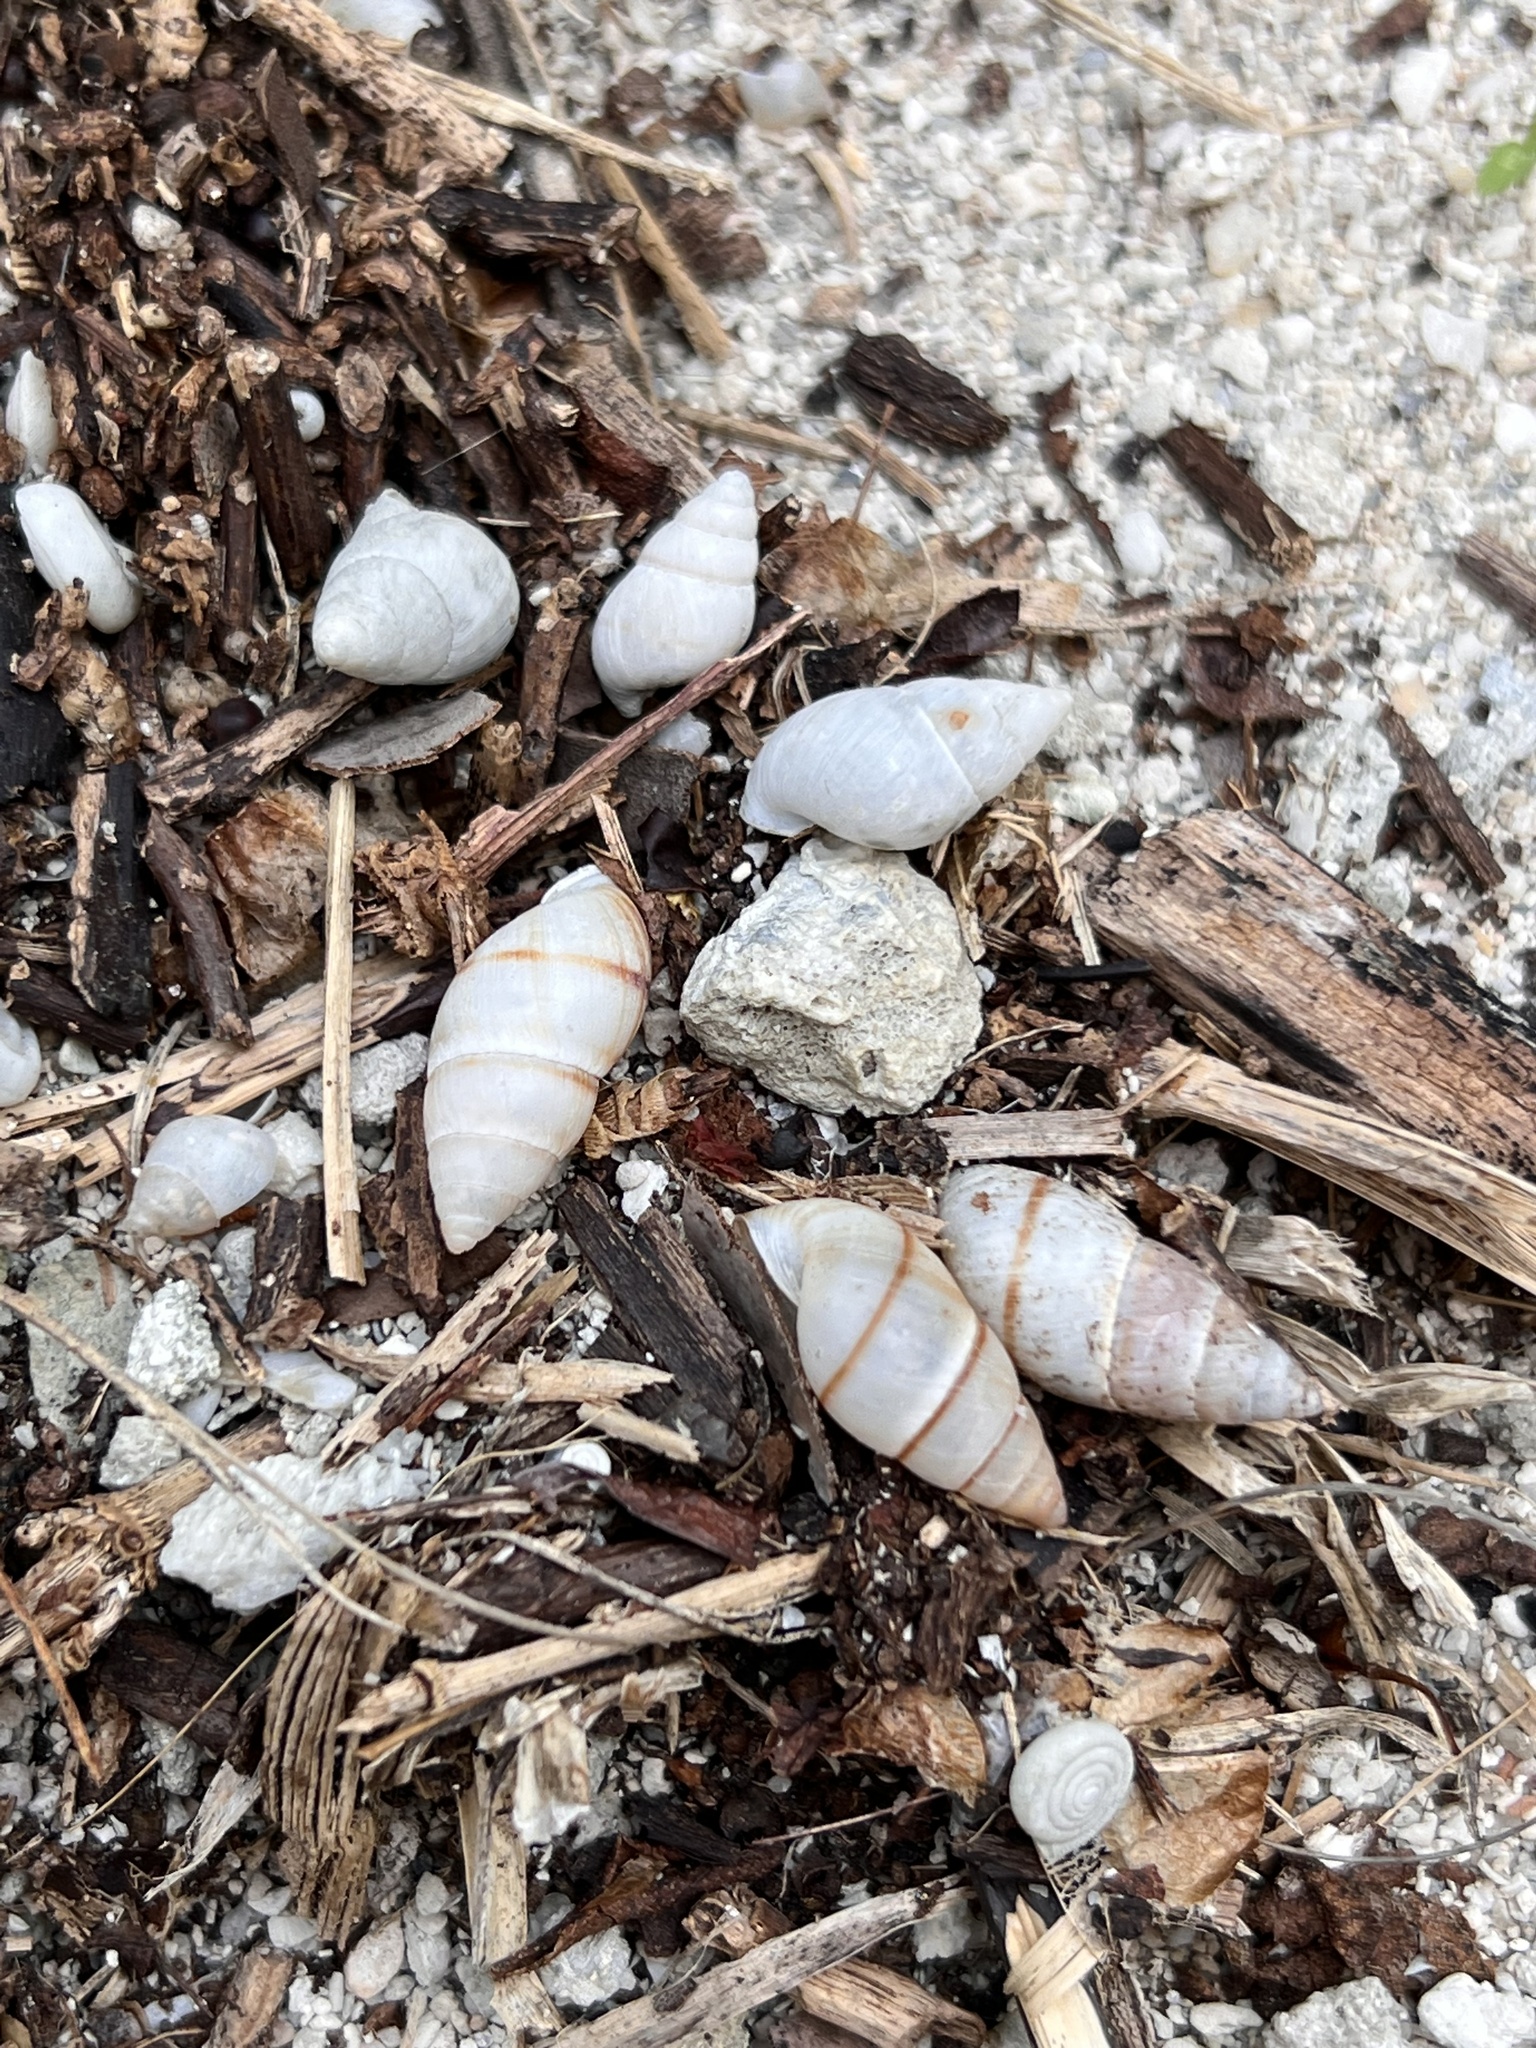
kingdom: Animalia
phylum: Mollusca
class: Gastropoda
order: Stylommatophora
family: Bulimulidae
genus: Bulimulus
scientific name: Bulimulus guadalupensis
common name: West indian bulimulus
